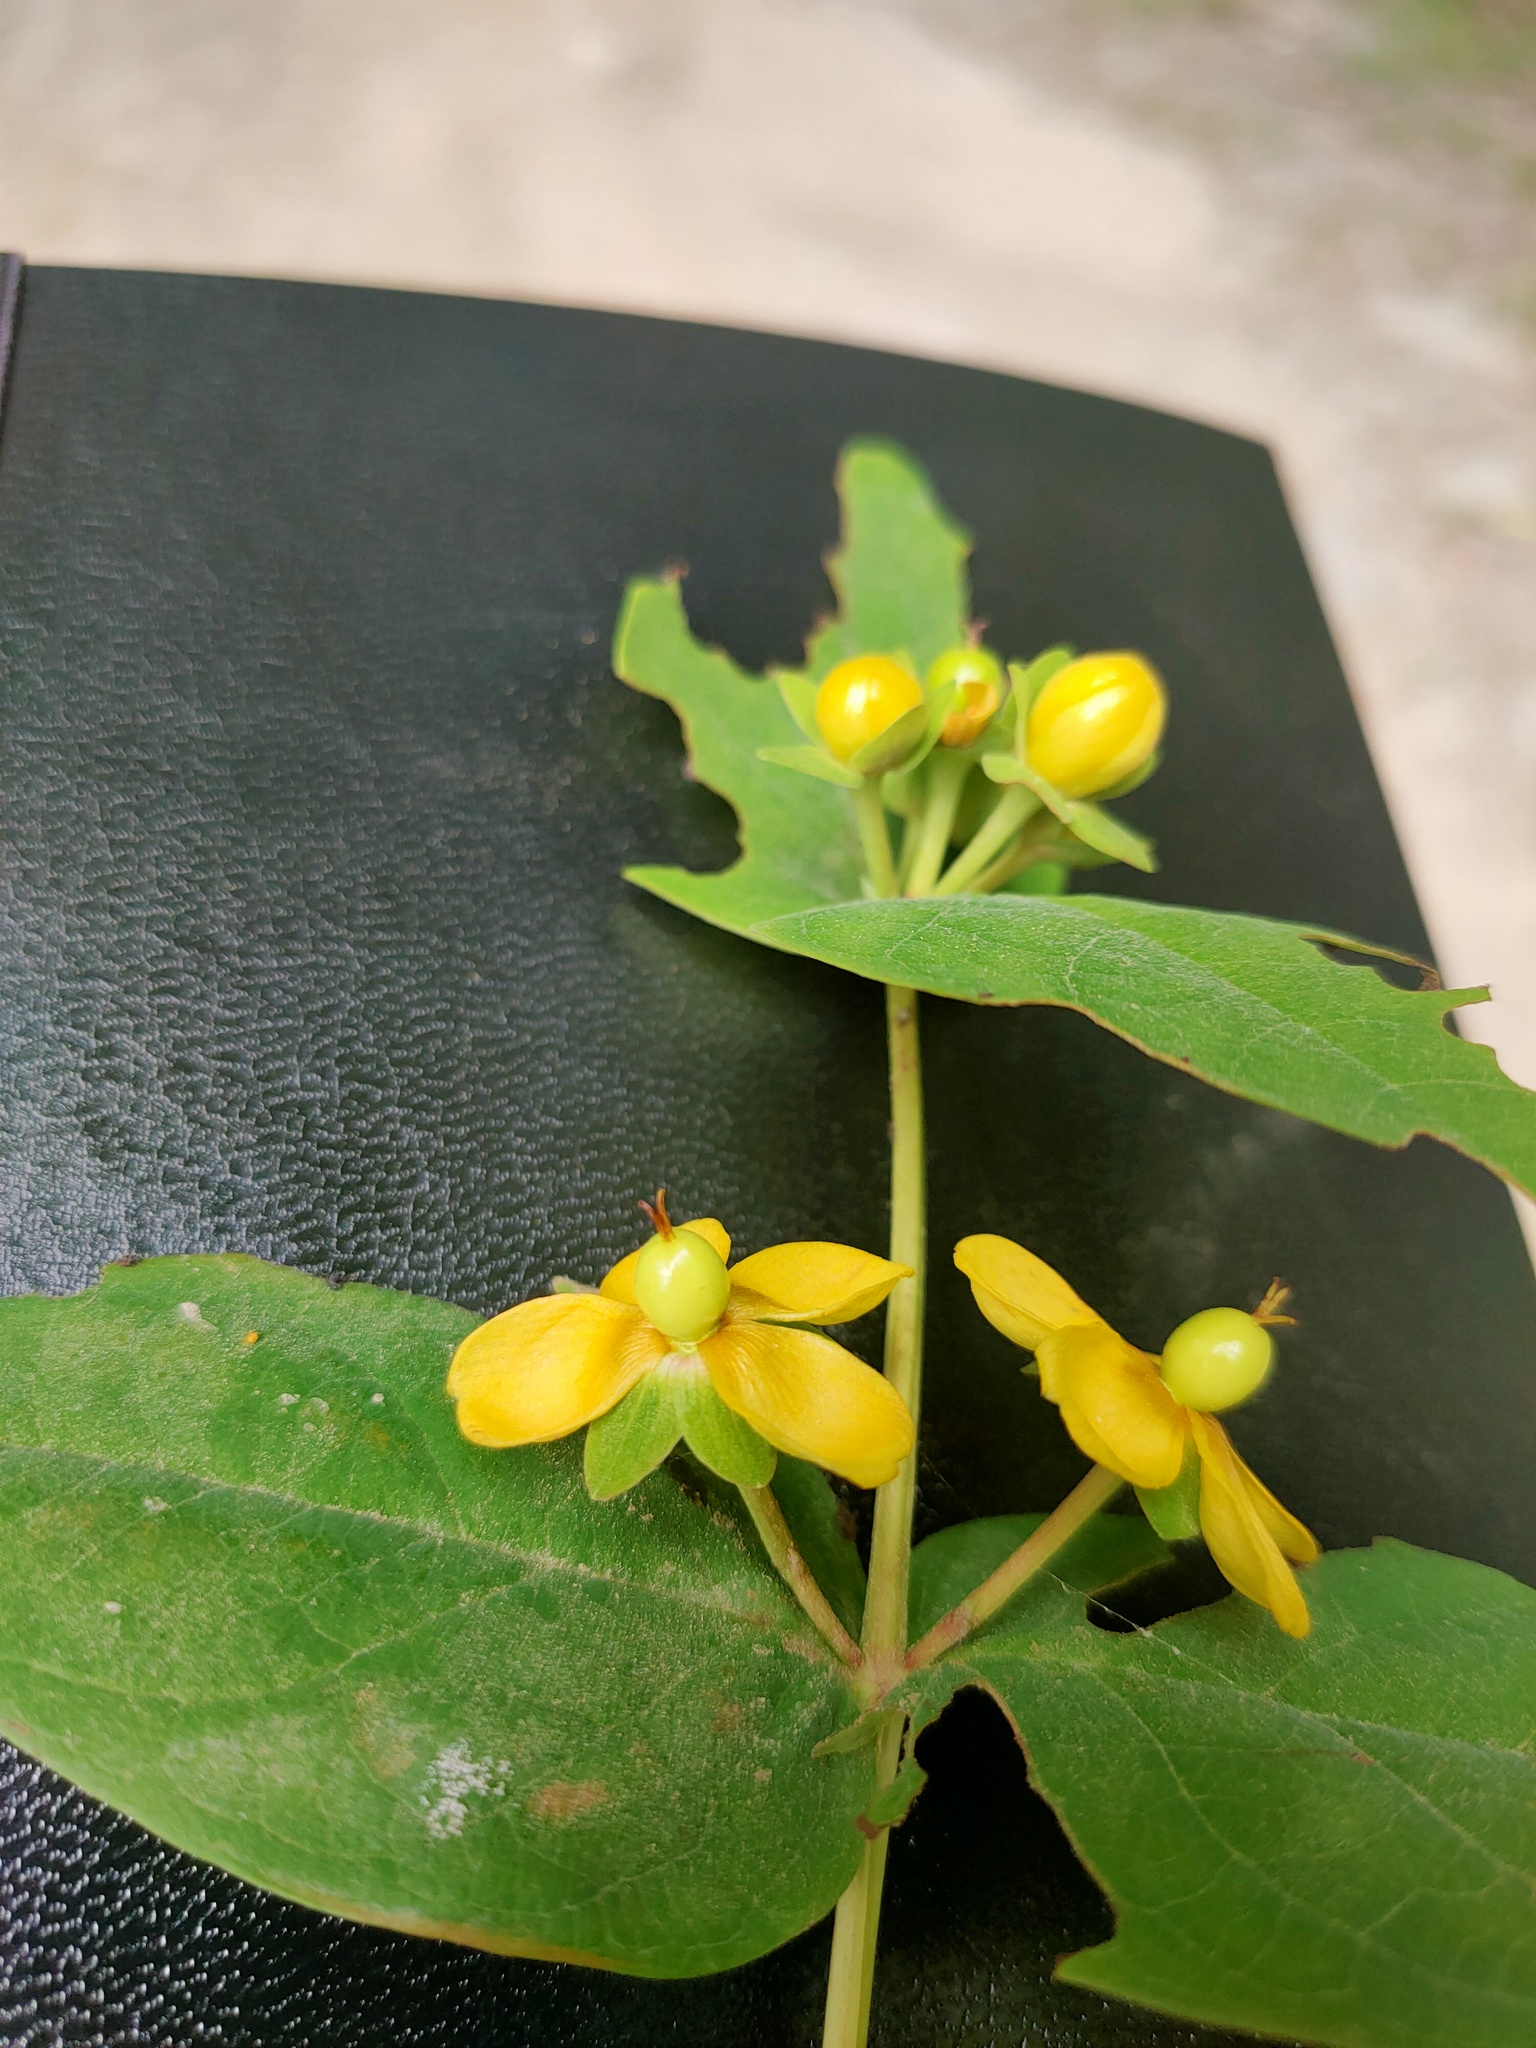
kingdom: Plantae
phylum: Tracheophyta
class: Magnoliopsida
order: Malpighiales
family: Hypericaceae
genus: Hypericum
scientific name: Hypericum androsaemum
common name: Sweet-amber
